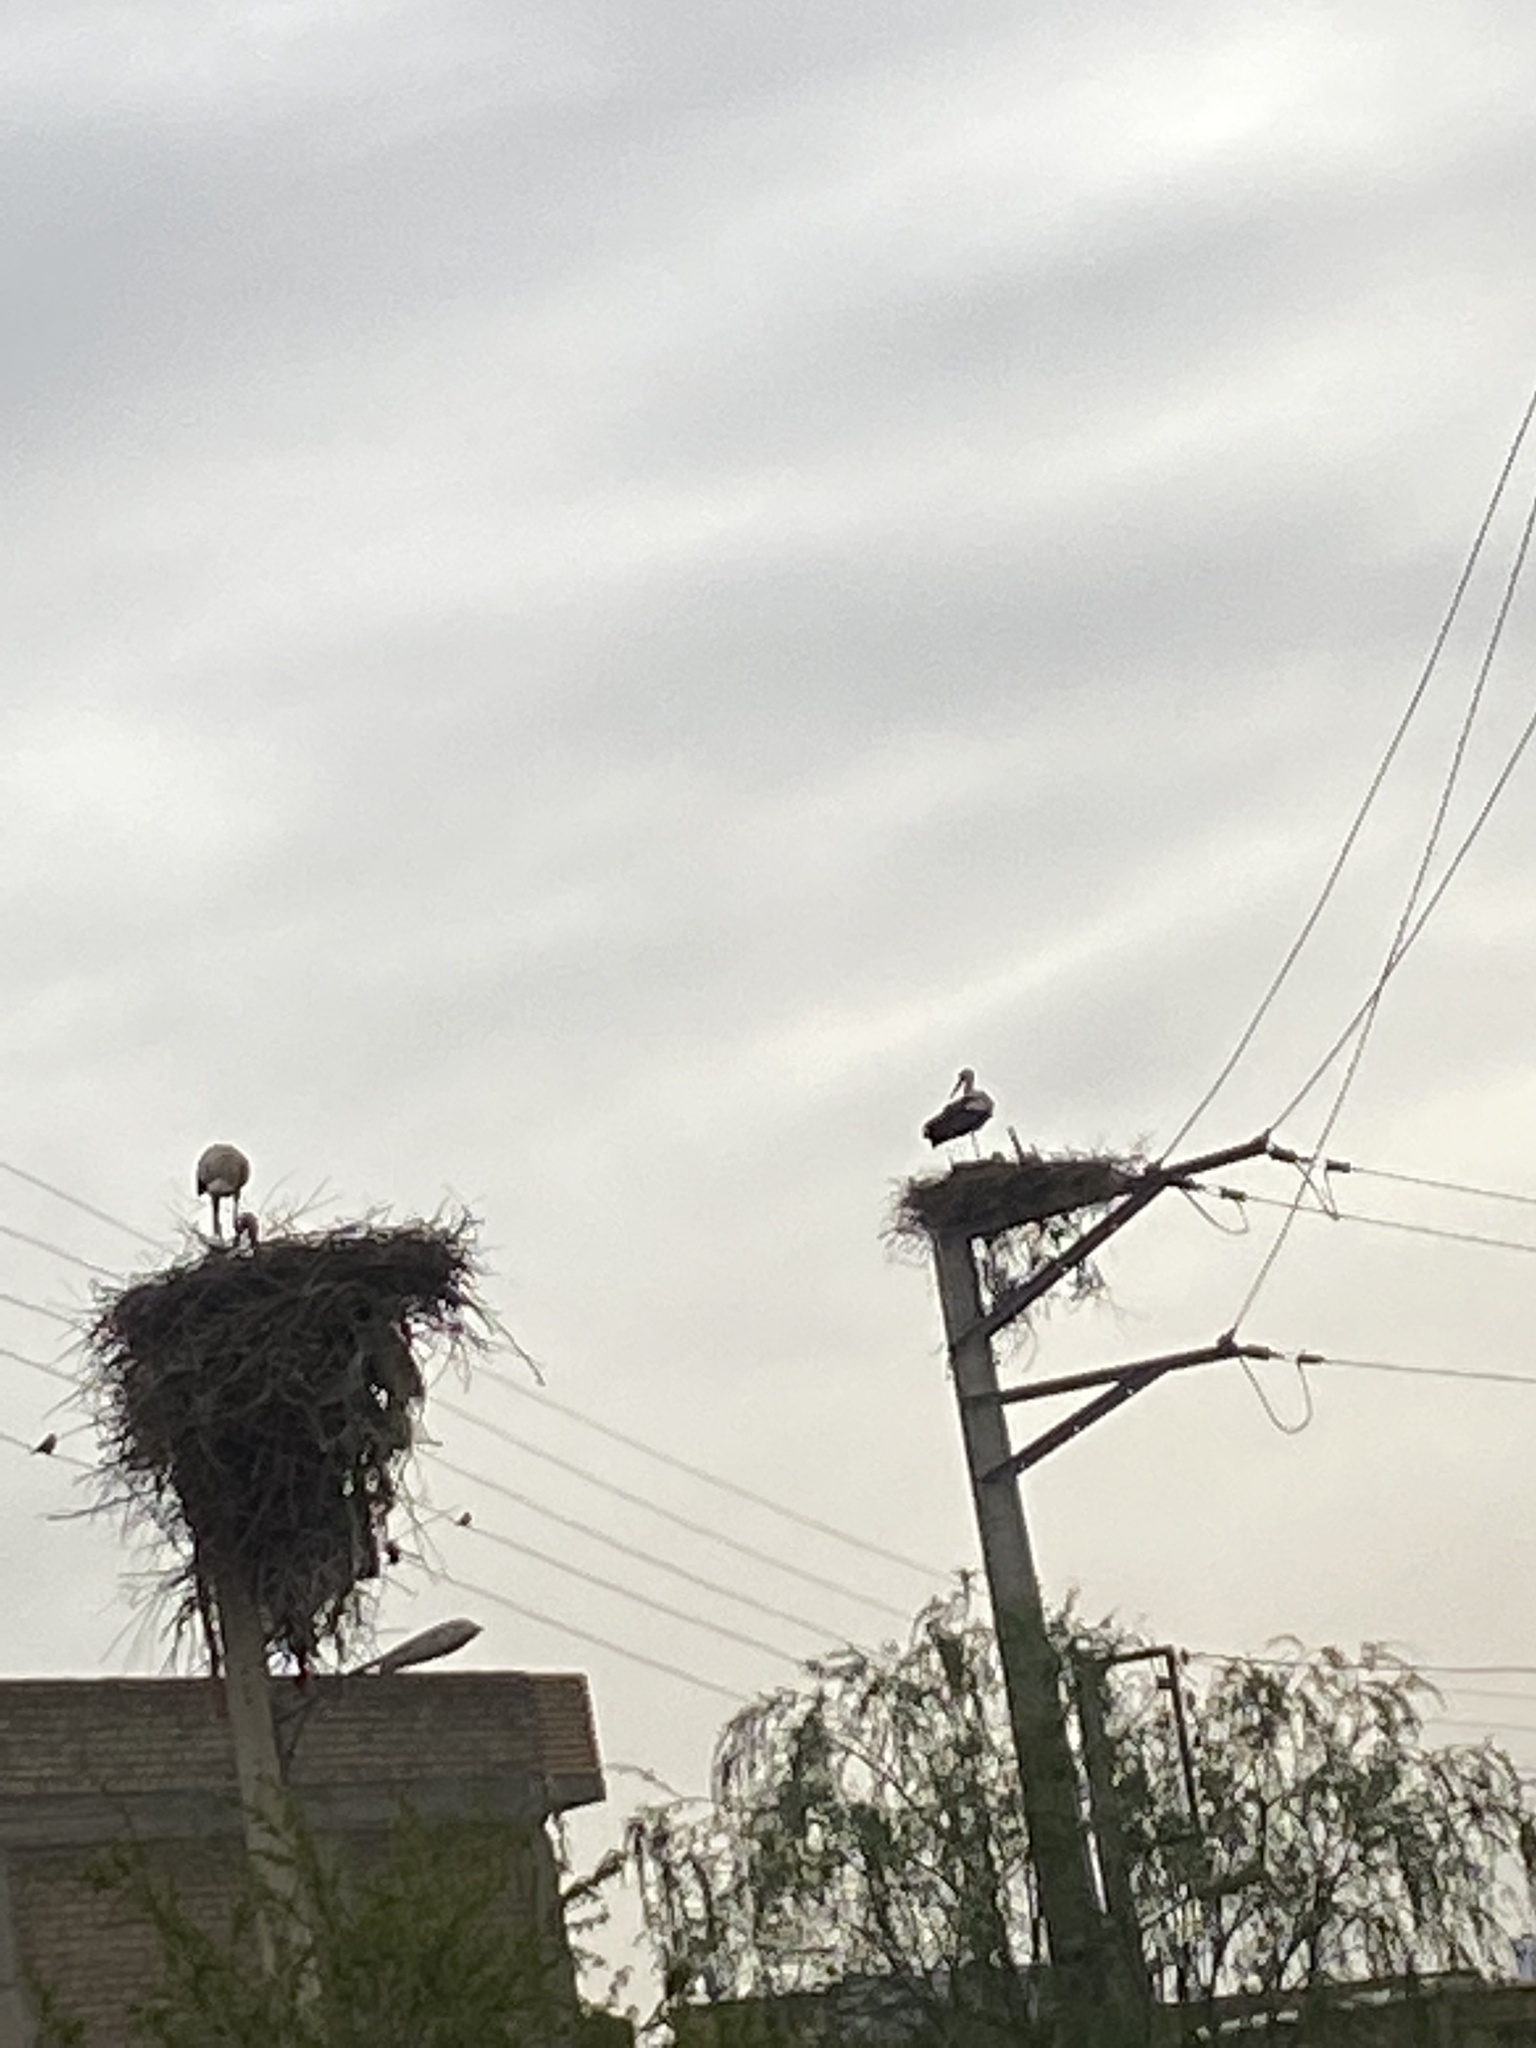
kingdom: Animalia
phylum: Chordata
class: Aves
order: Ciconiiformes
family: Ciconiidae
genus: Ciconia
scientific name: Ciconia ciconia
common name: White stork
